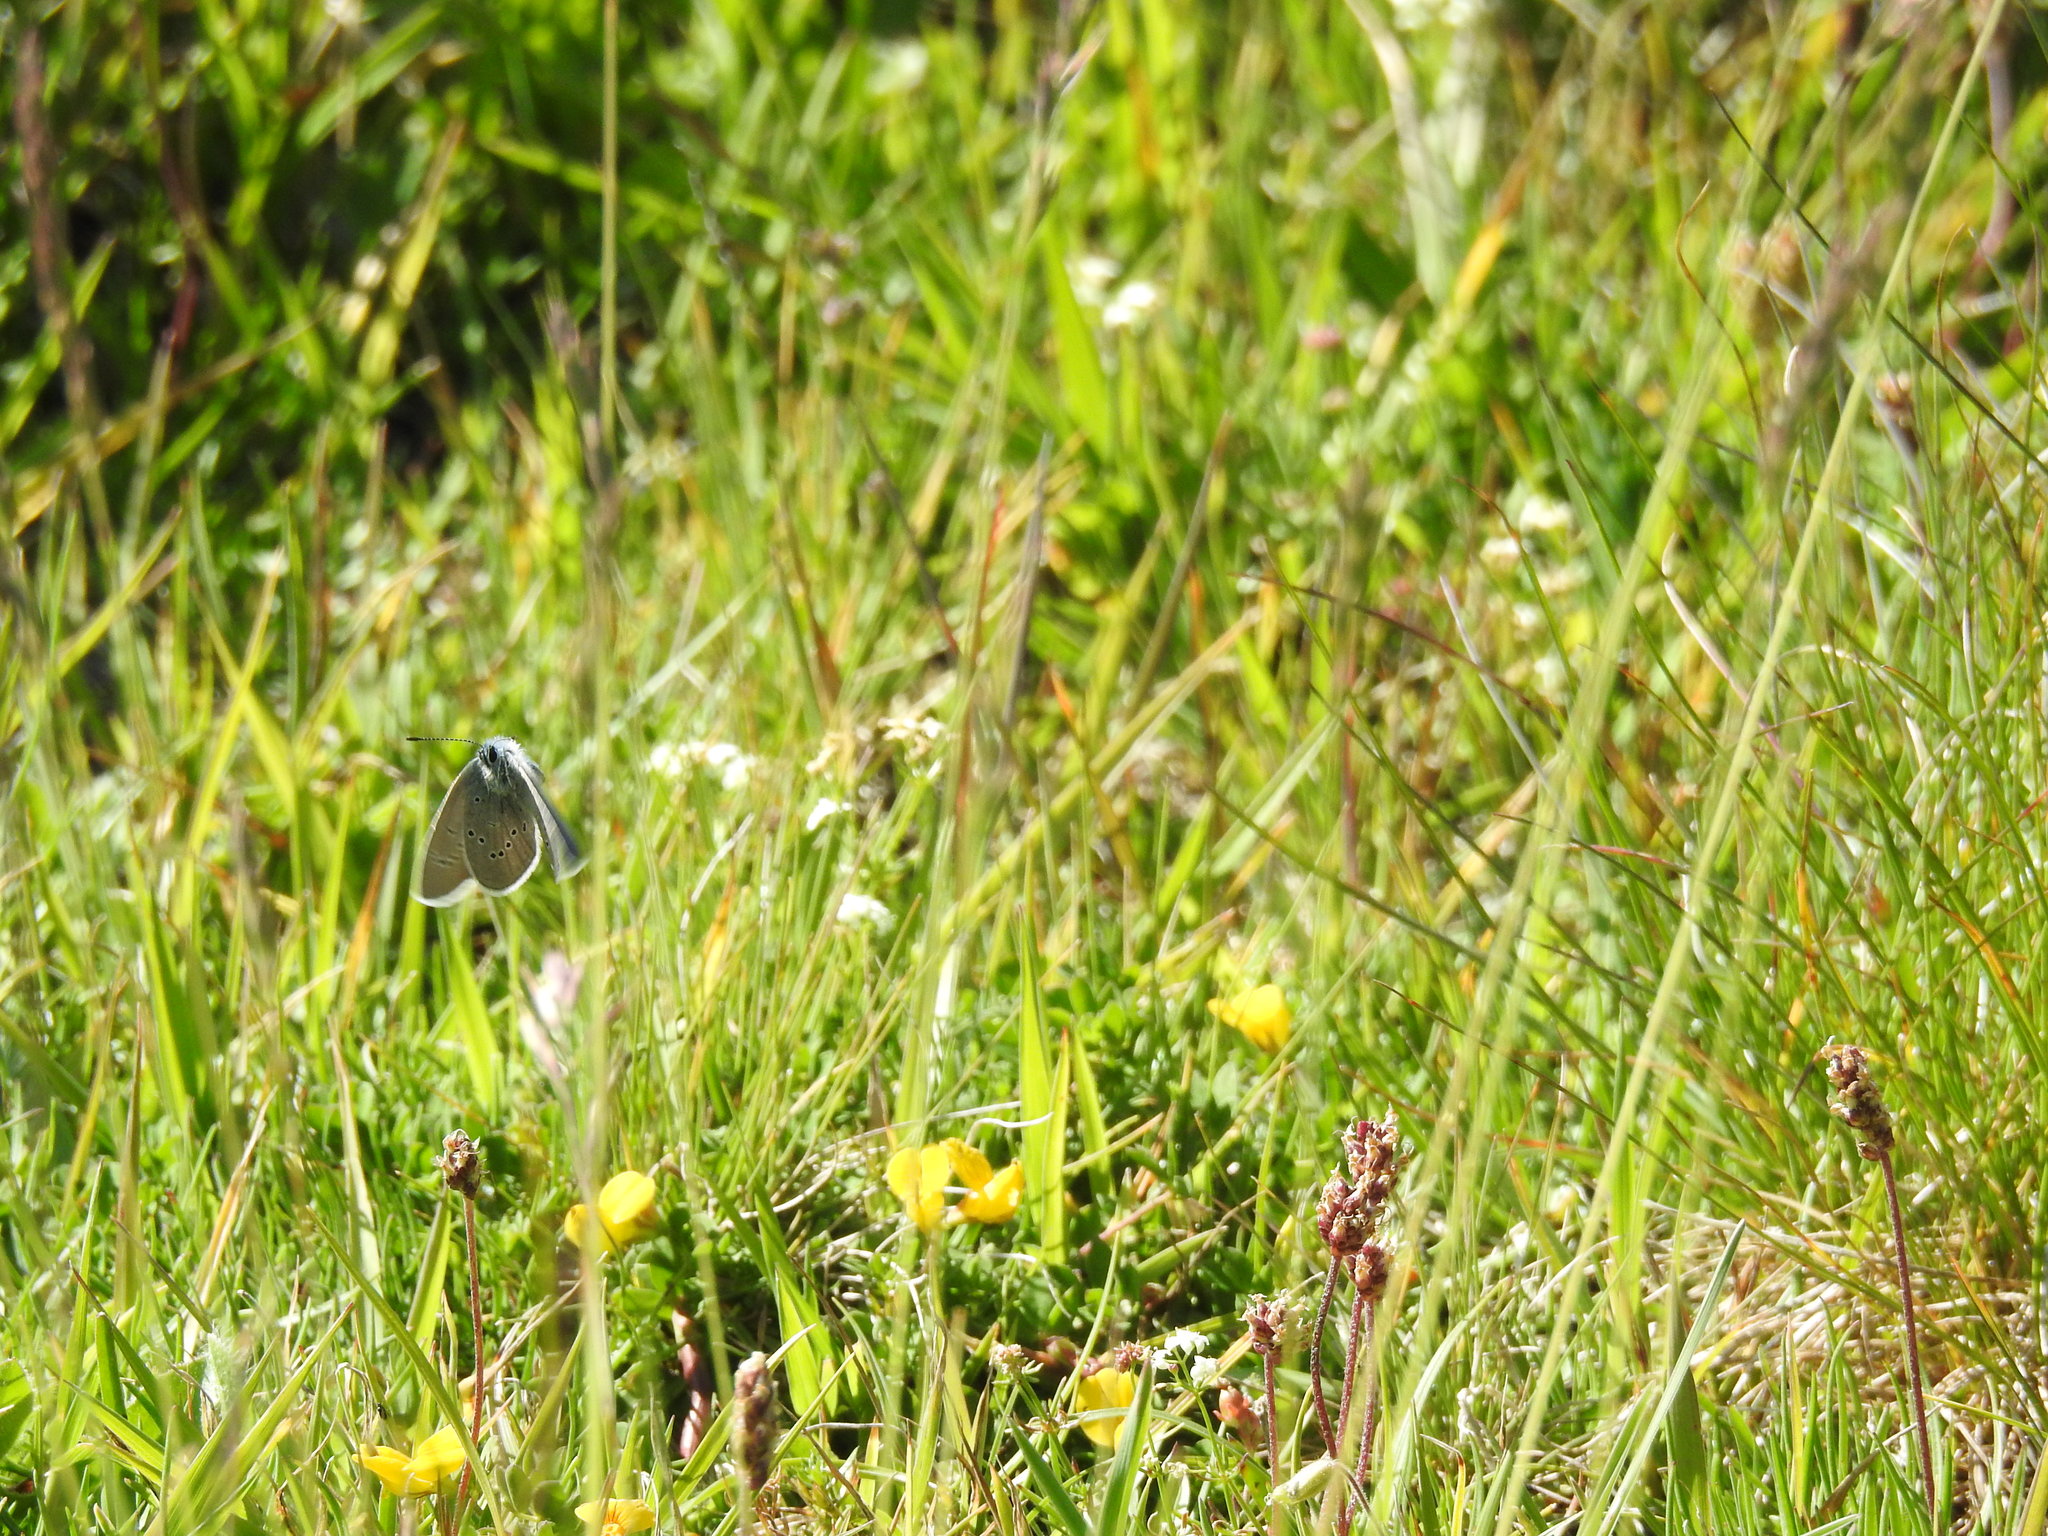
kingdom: Animalia
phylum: Arthropoda
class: Insecta
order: Lepidoptera
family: Lycaenidae
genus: Cyaniris
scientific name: Cyaniris semiargus
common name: Mazarine blue
